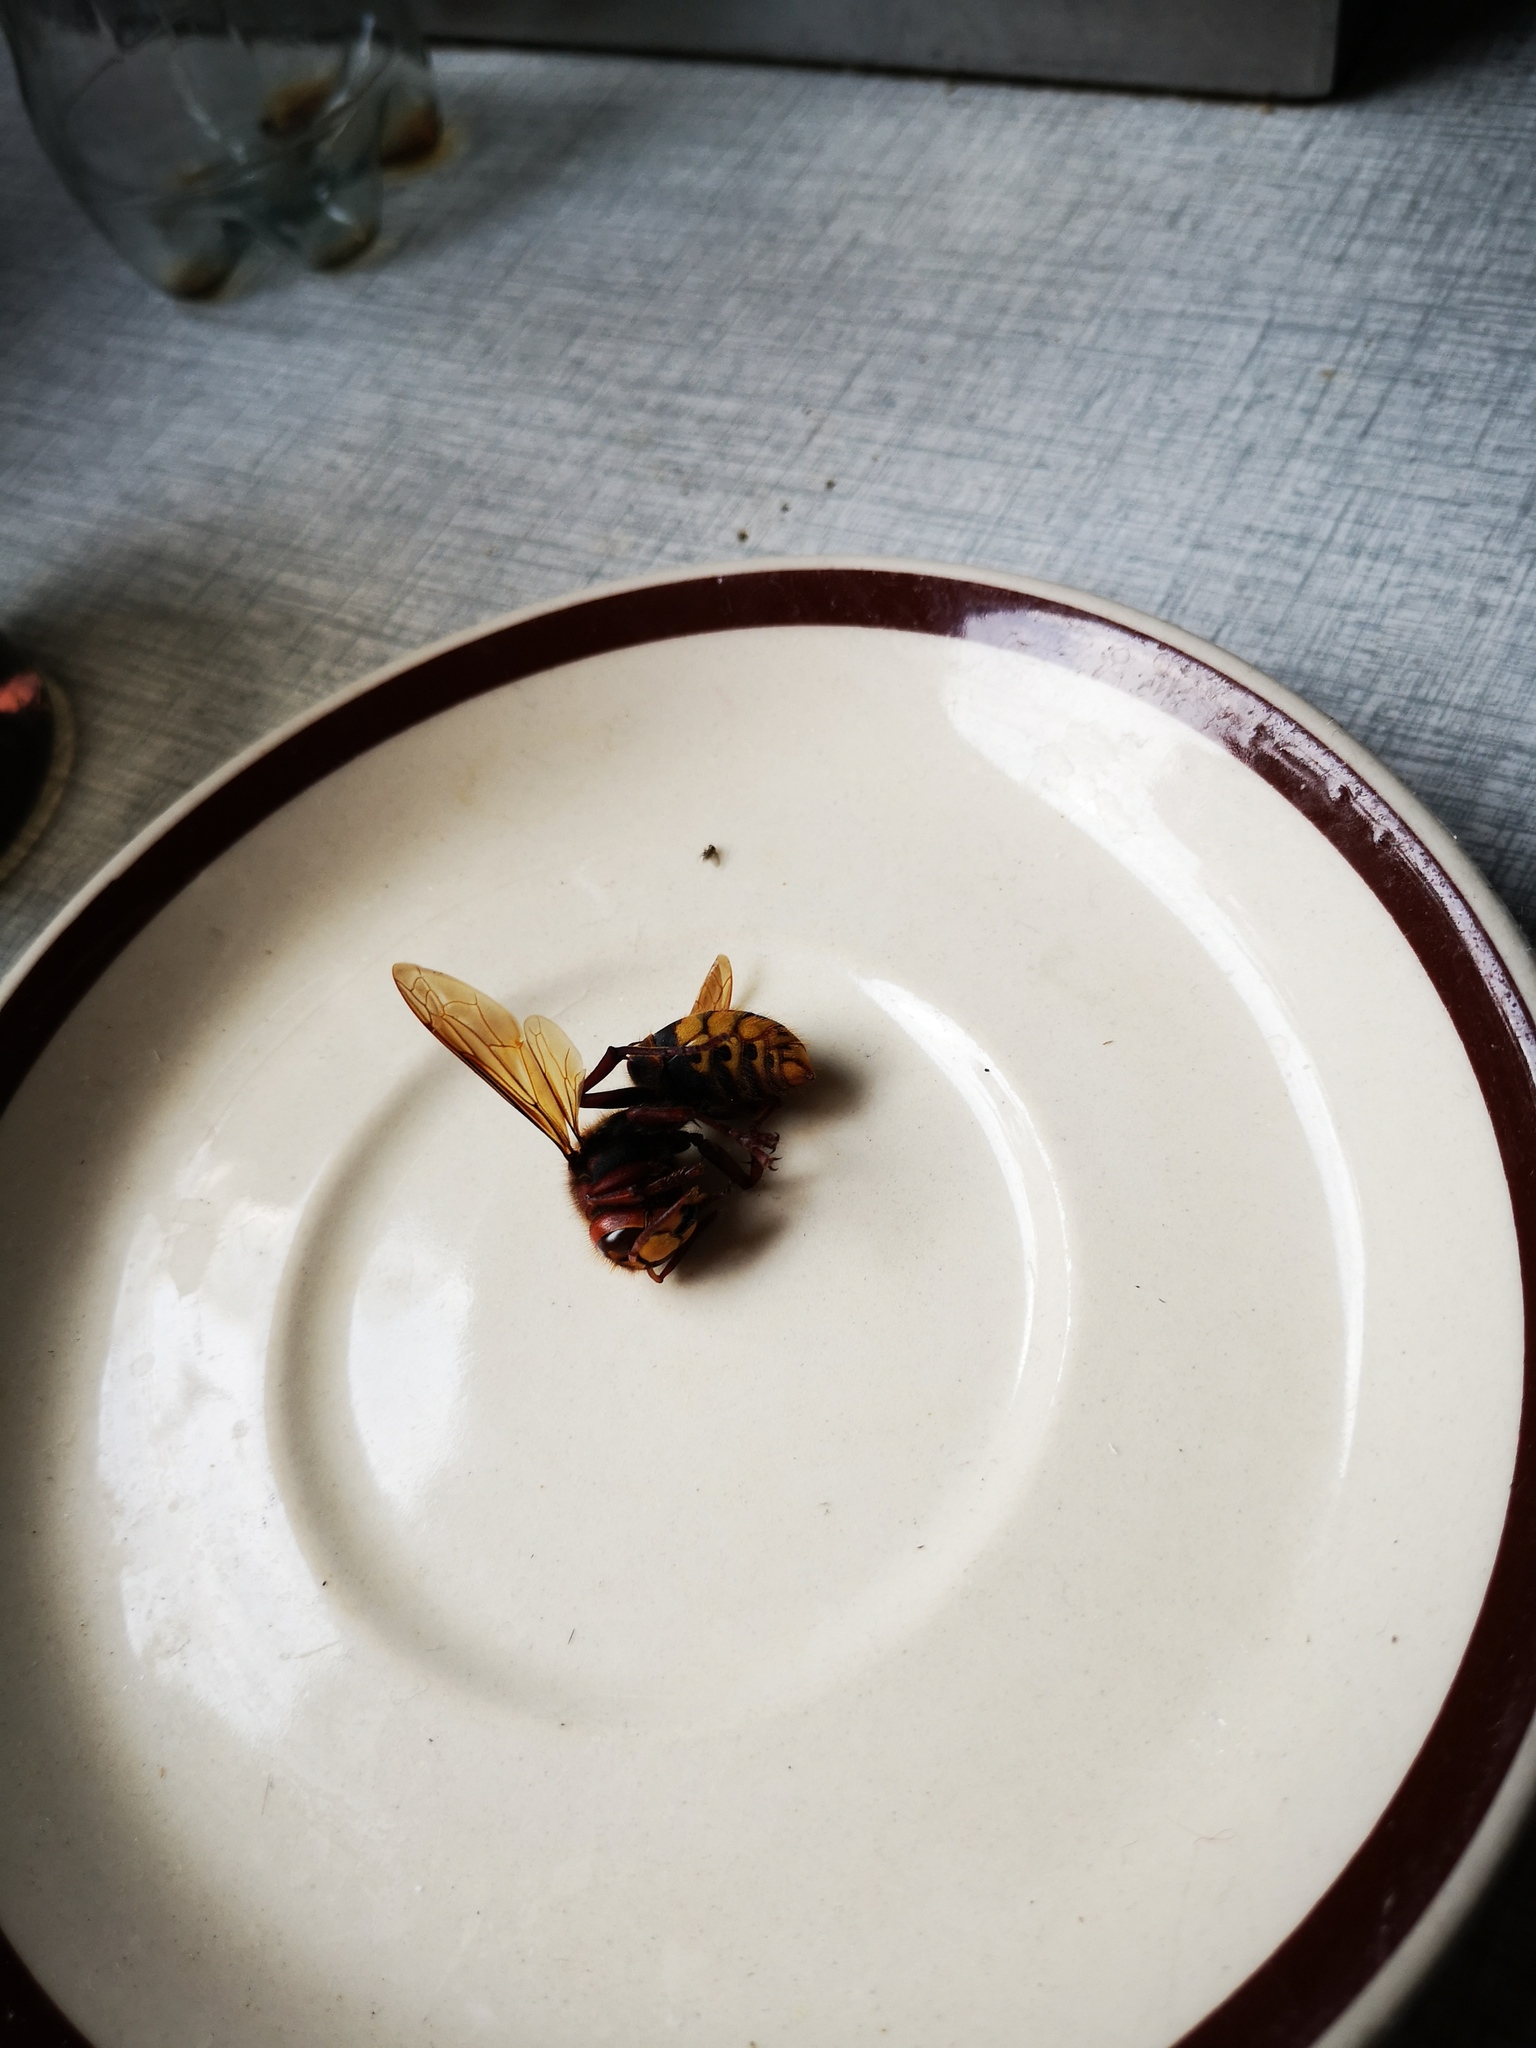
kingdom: Animalia
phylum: Arthropoda
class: Insecta
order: Hymenoptera
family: Vespidae
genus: Vespa
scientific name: Vespa crabro
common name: Hornet
